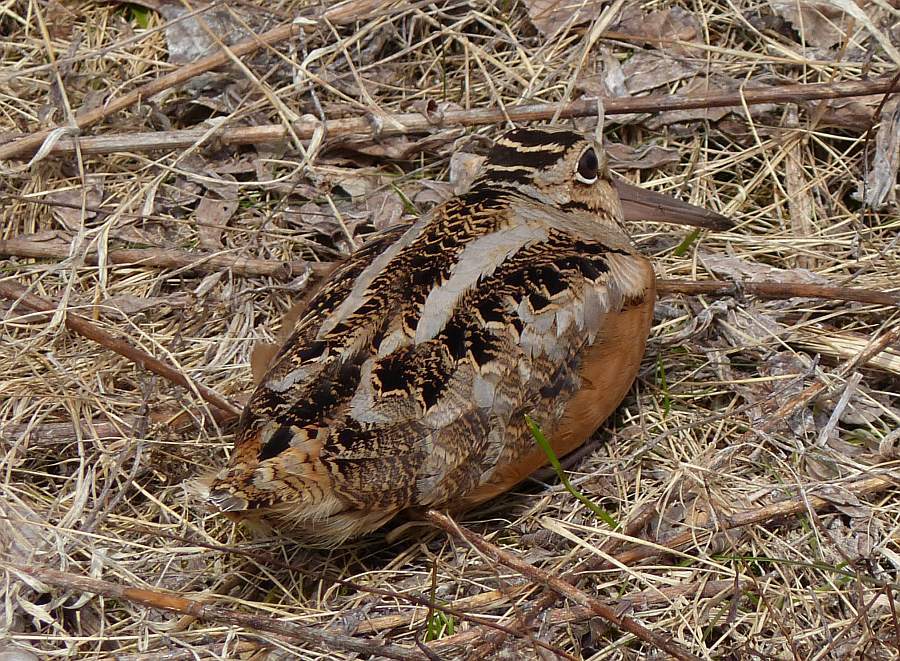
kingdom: Animalia
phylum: Chordata
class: Aves
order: Charadriiformes
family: Scolopacidae
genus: Scolopax
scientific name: Scolopax minor
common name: American woodcock
